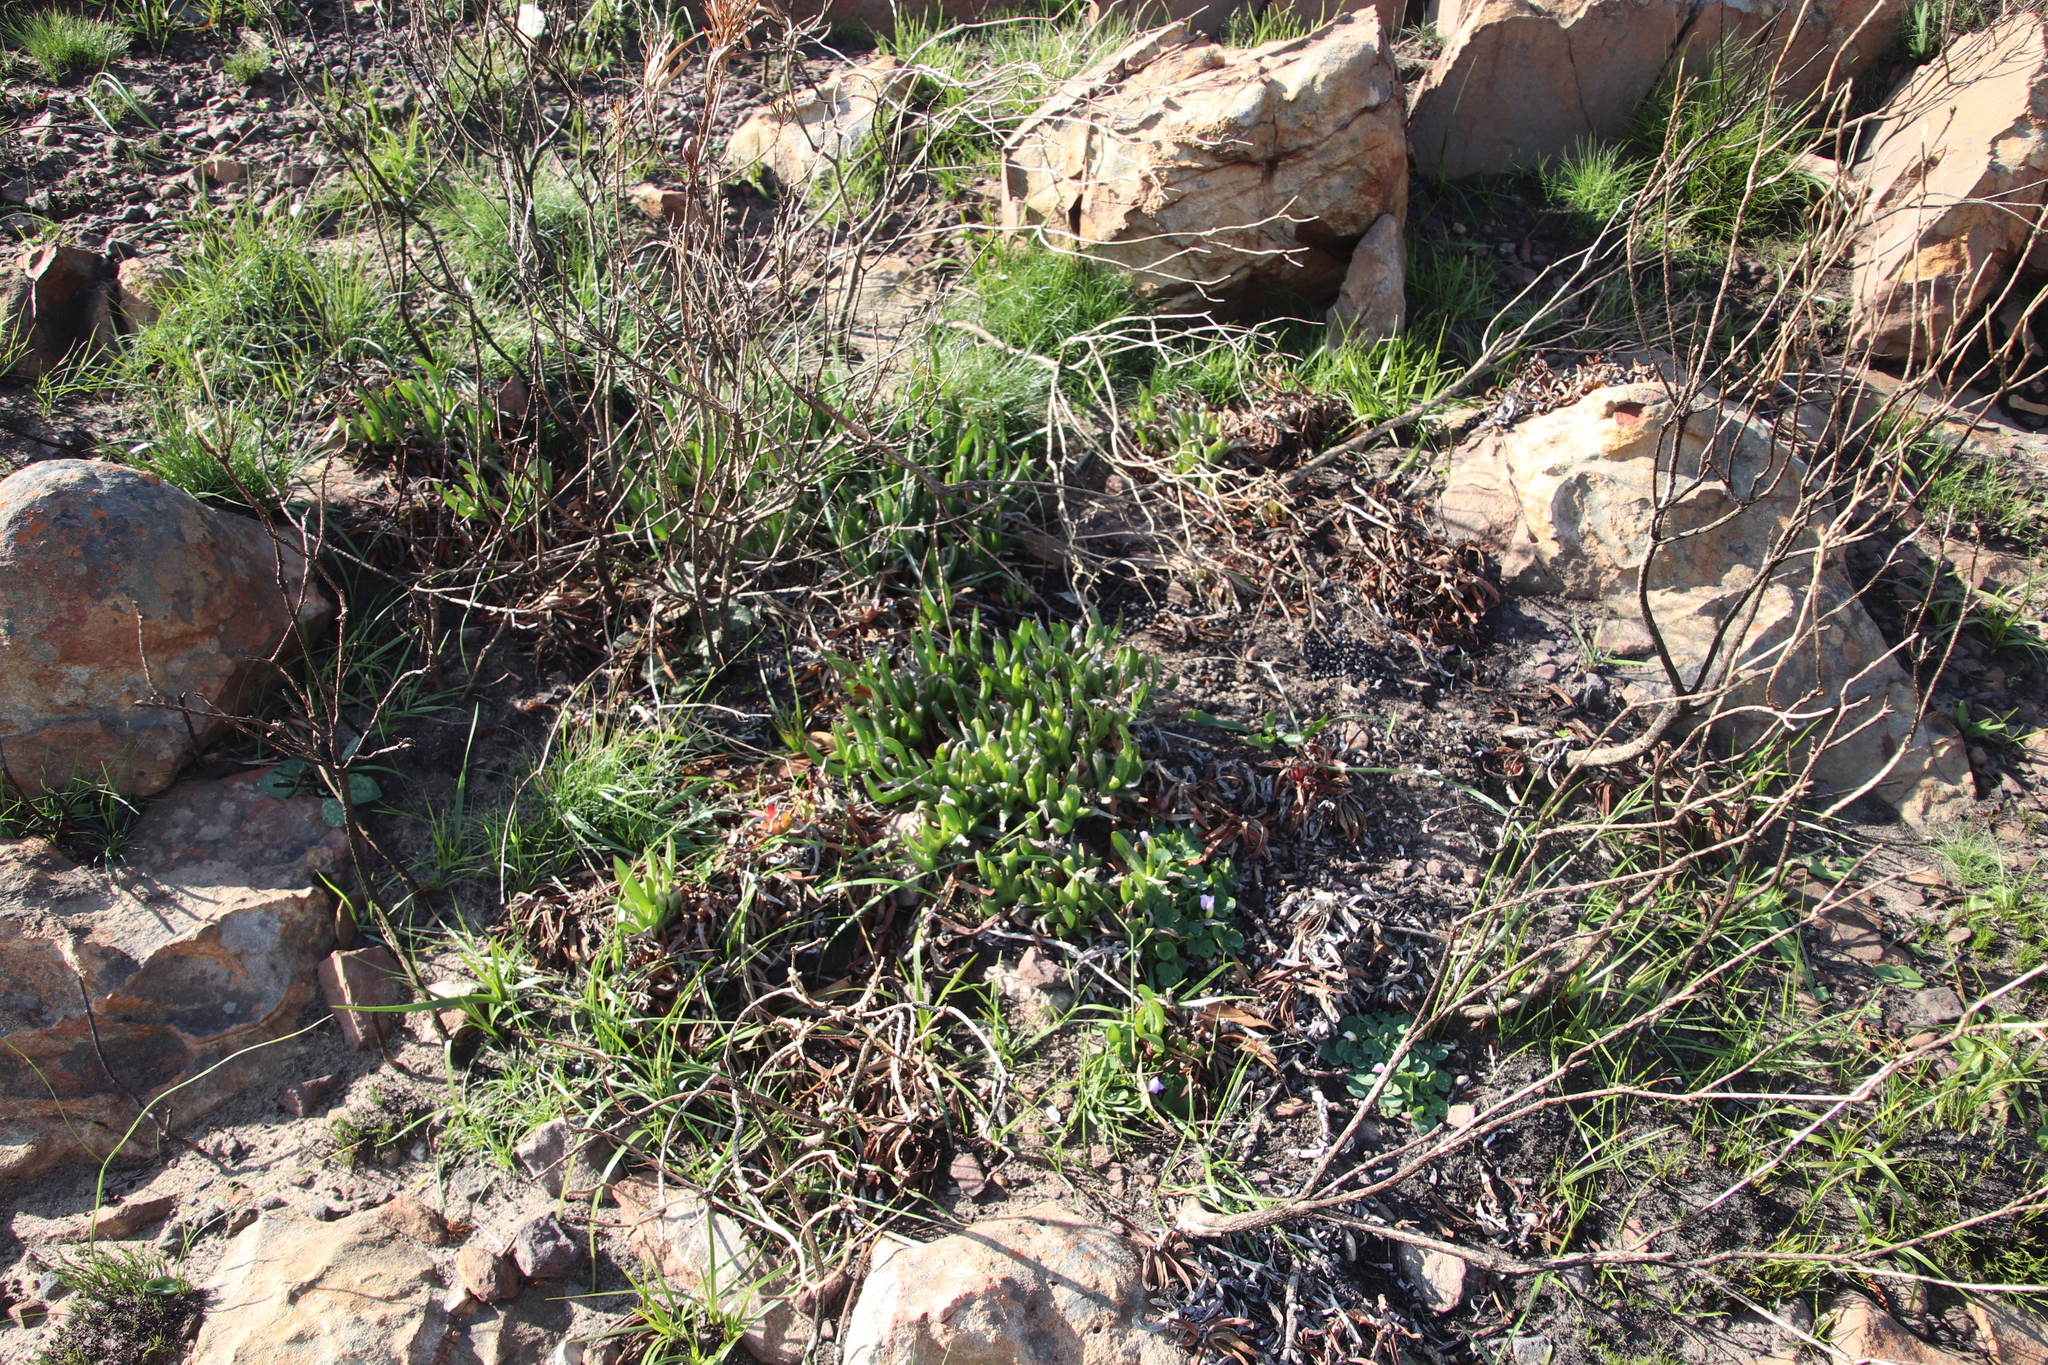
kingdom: Plantae
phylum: Tracheophyta
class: Magnoliopsida
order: Caryophyllales
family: Aizoaceae
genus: Carpobrotus
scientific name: Carpobrotus edulis
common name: Hottentot-fig
